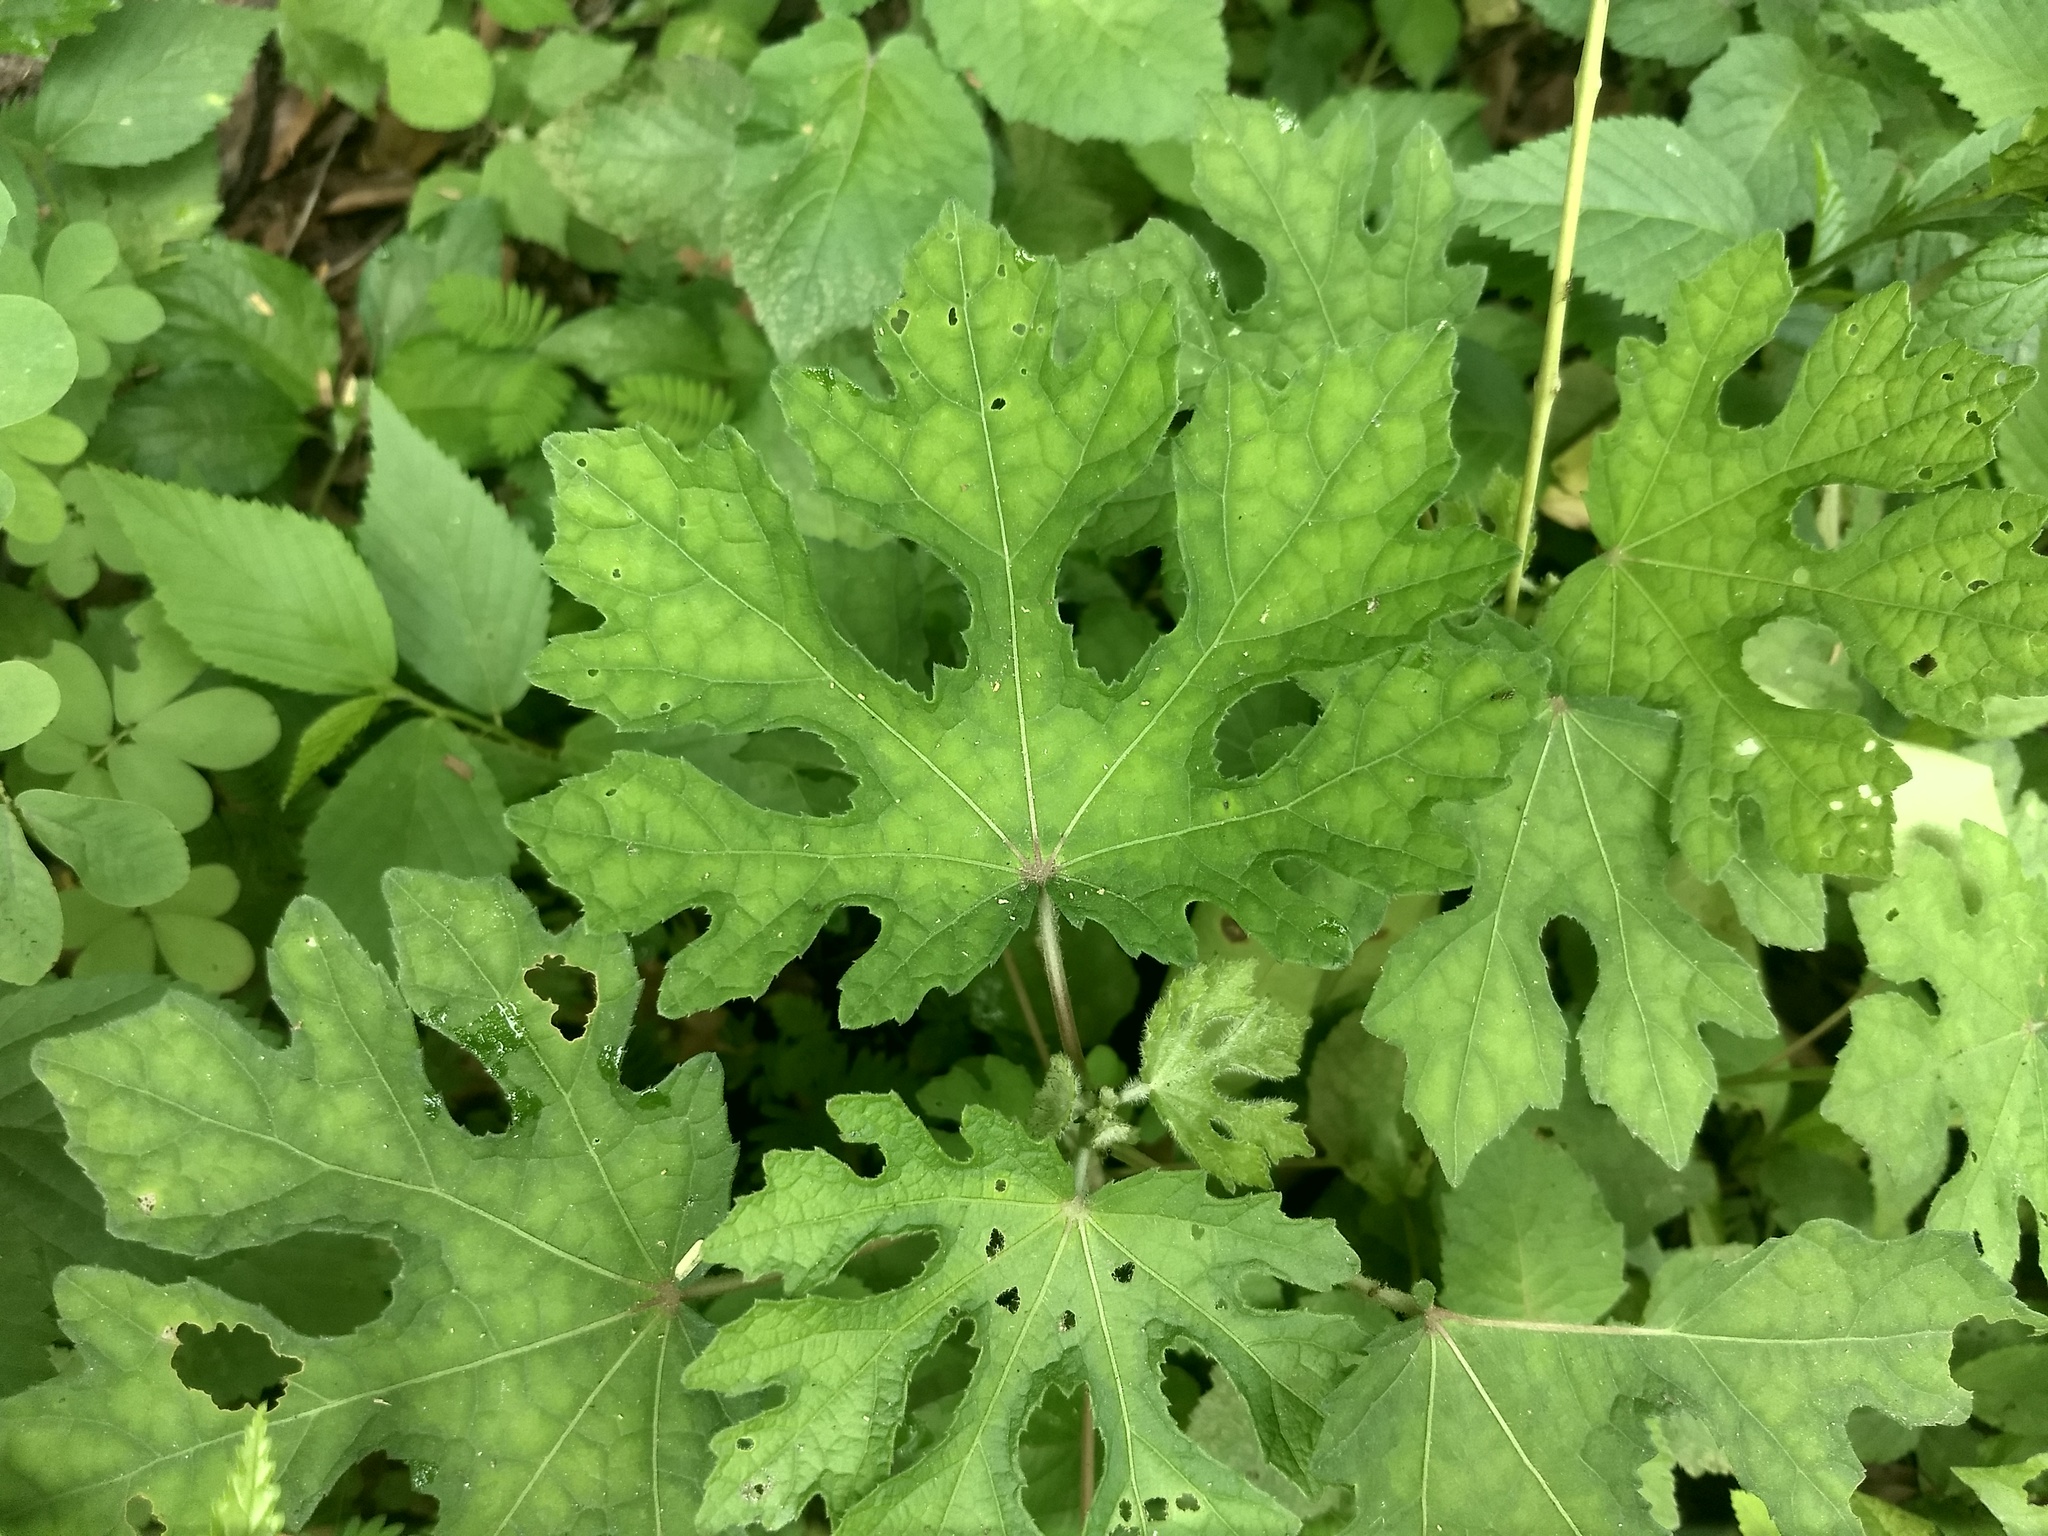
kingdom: Plantae
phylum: Tracheophyta
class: Magnoliopsida
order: Malvales
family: Malvaceae
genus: Urena
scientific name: Urena procumbens
